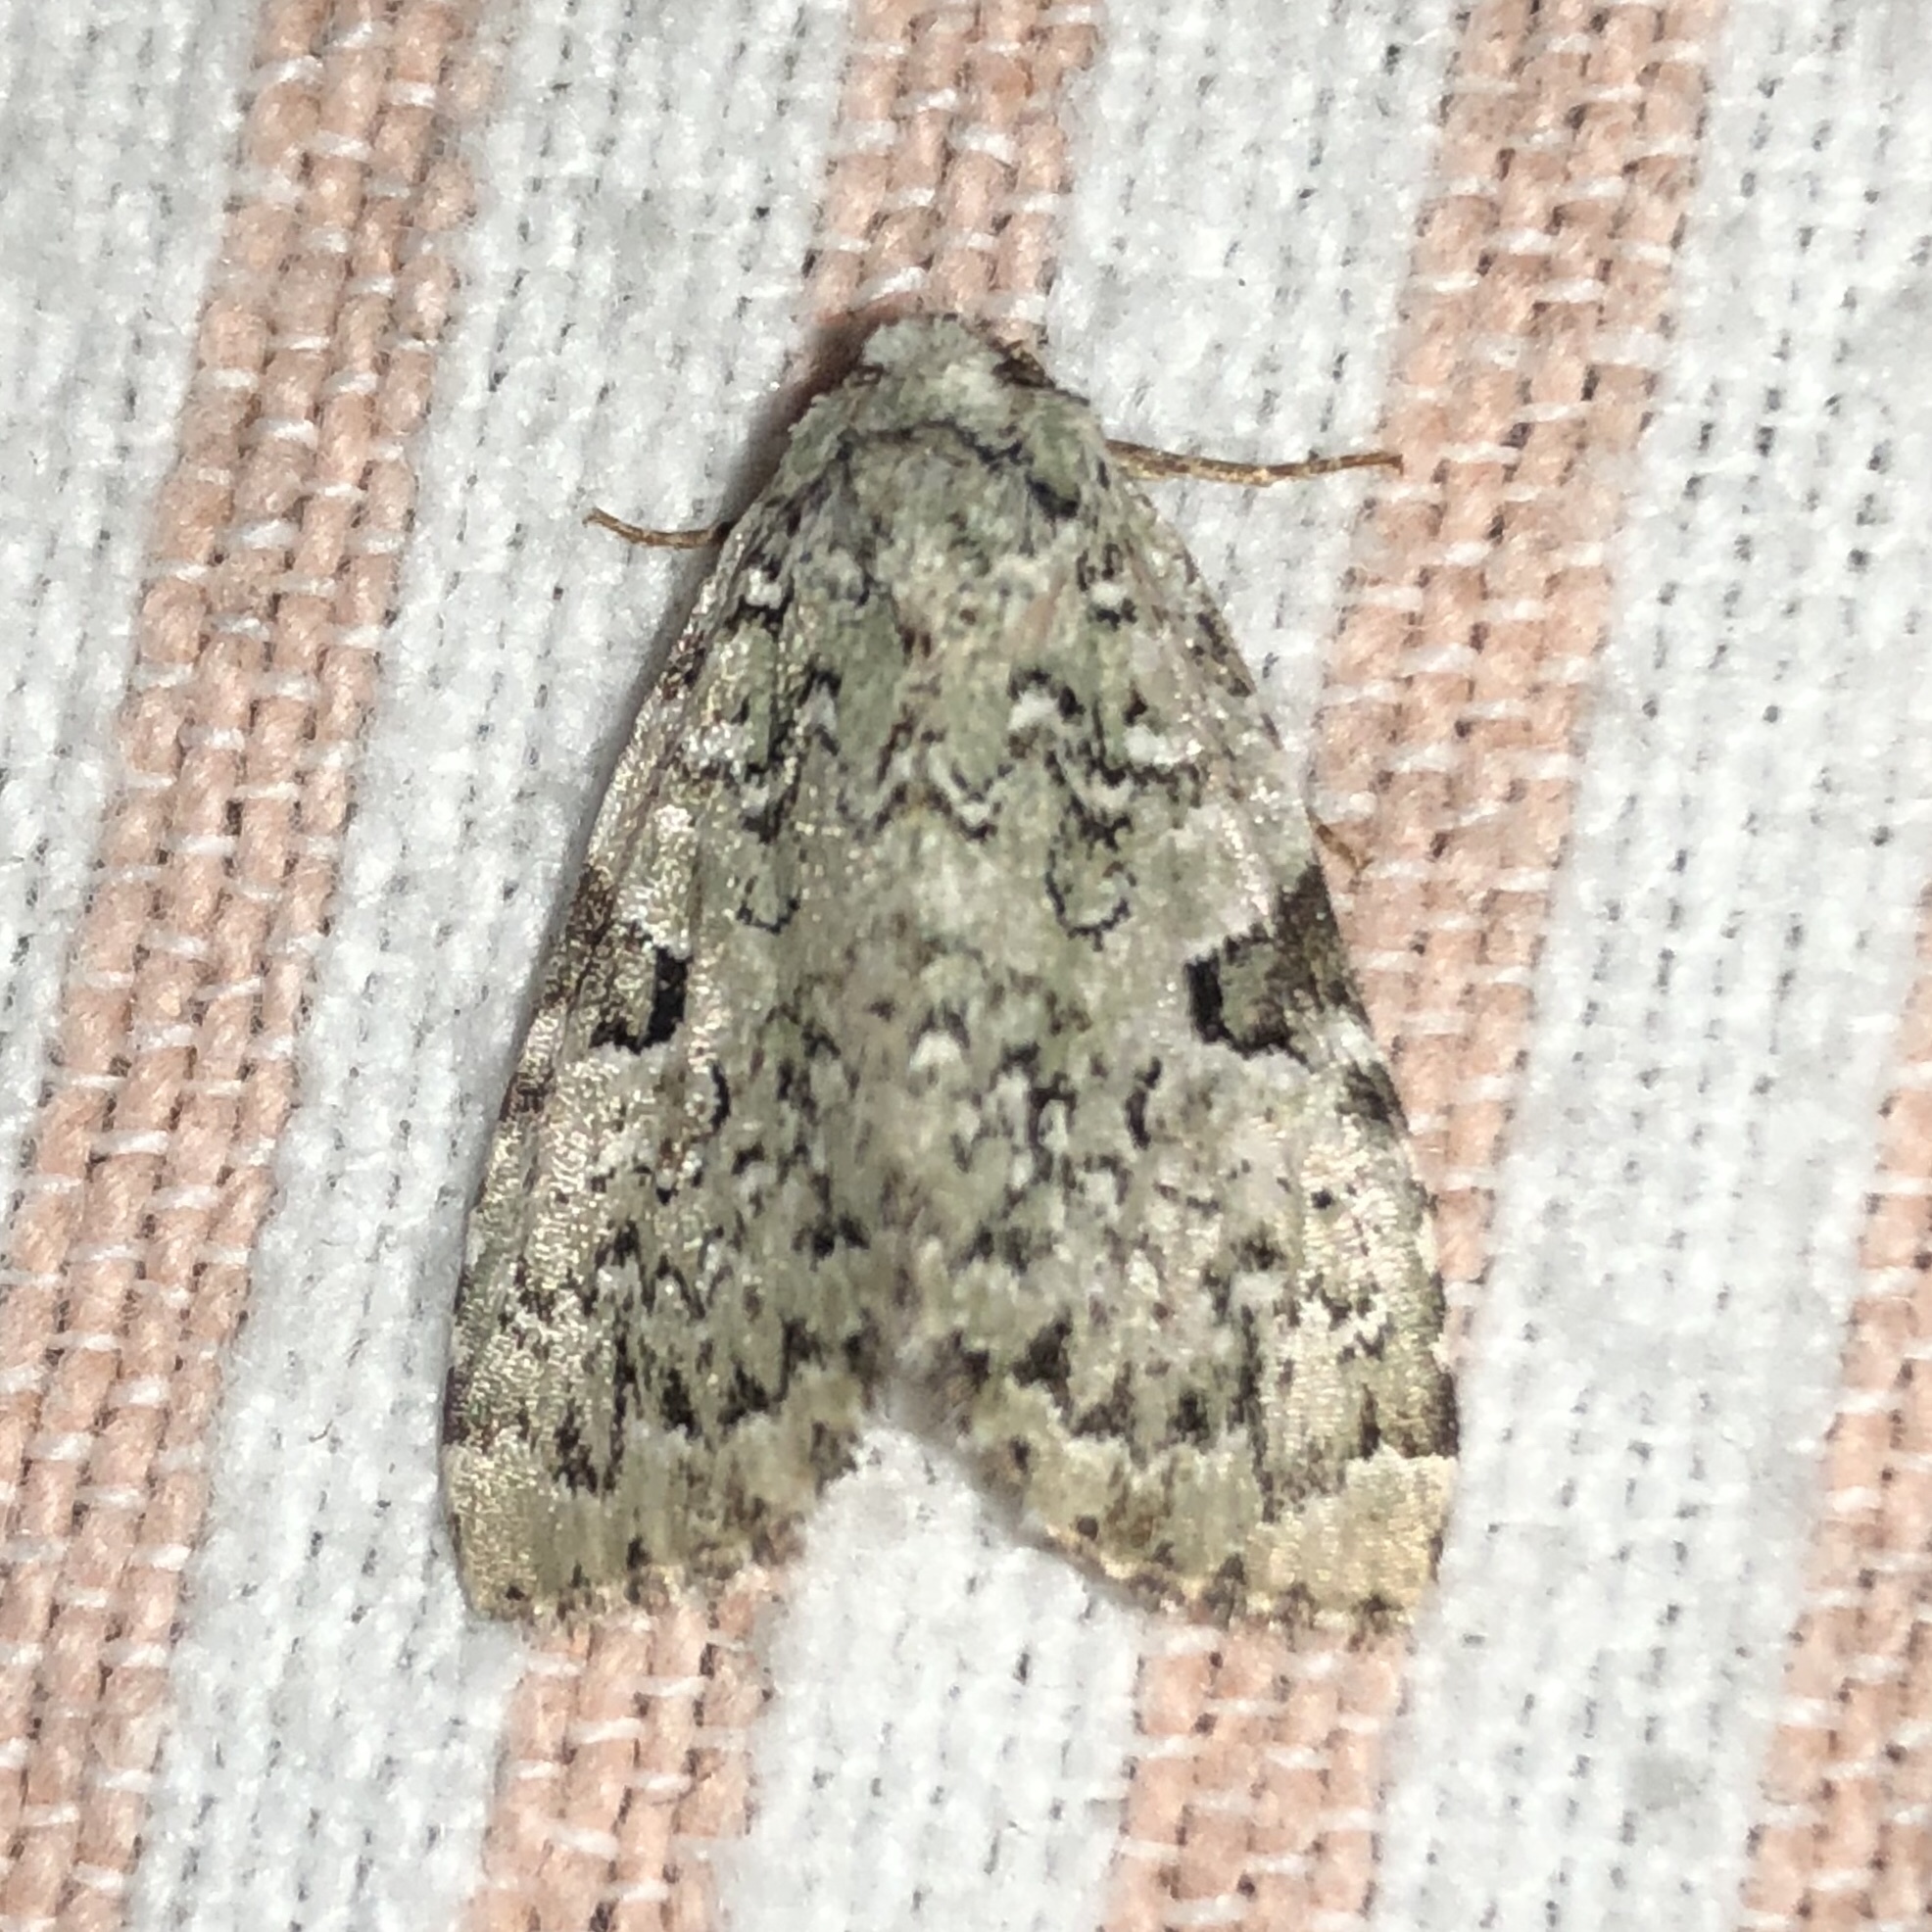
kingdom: Animalia
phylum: Arthropoda
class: Insecta
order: Lepidoptera
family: Noctuidae
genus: Leuconycta
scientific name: Leuconycta diphteroides
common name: Green leuconycta moth
